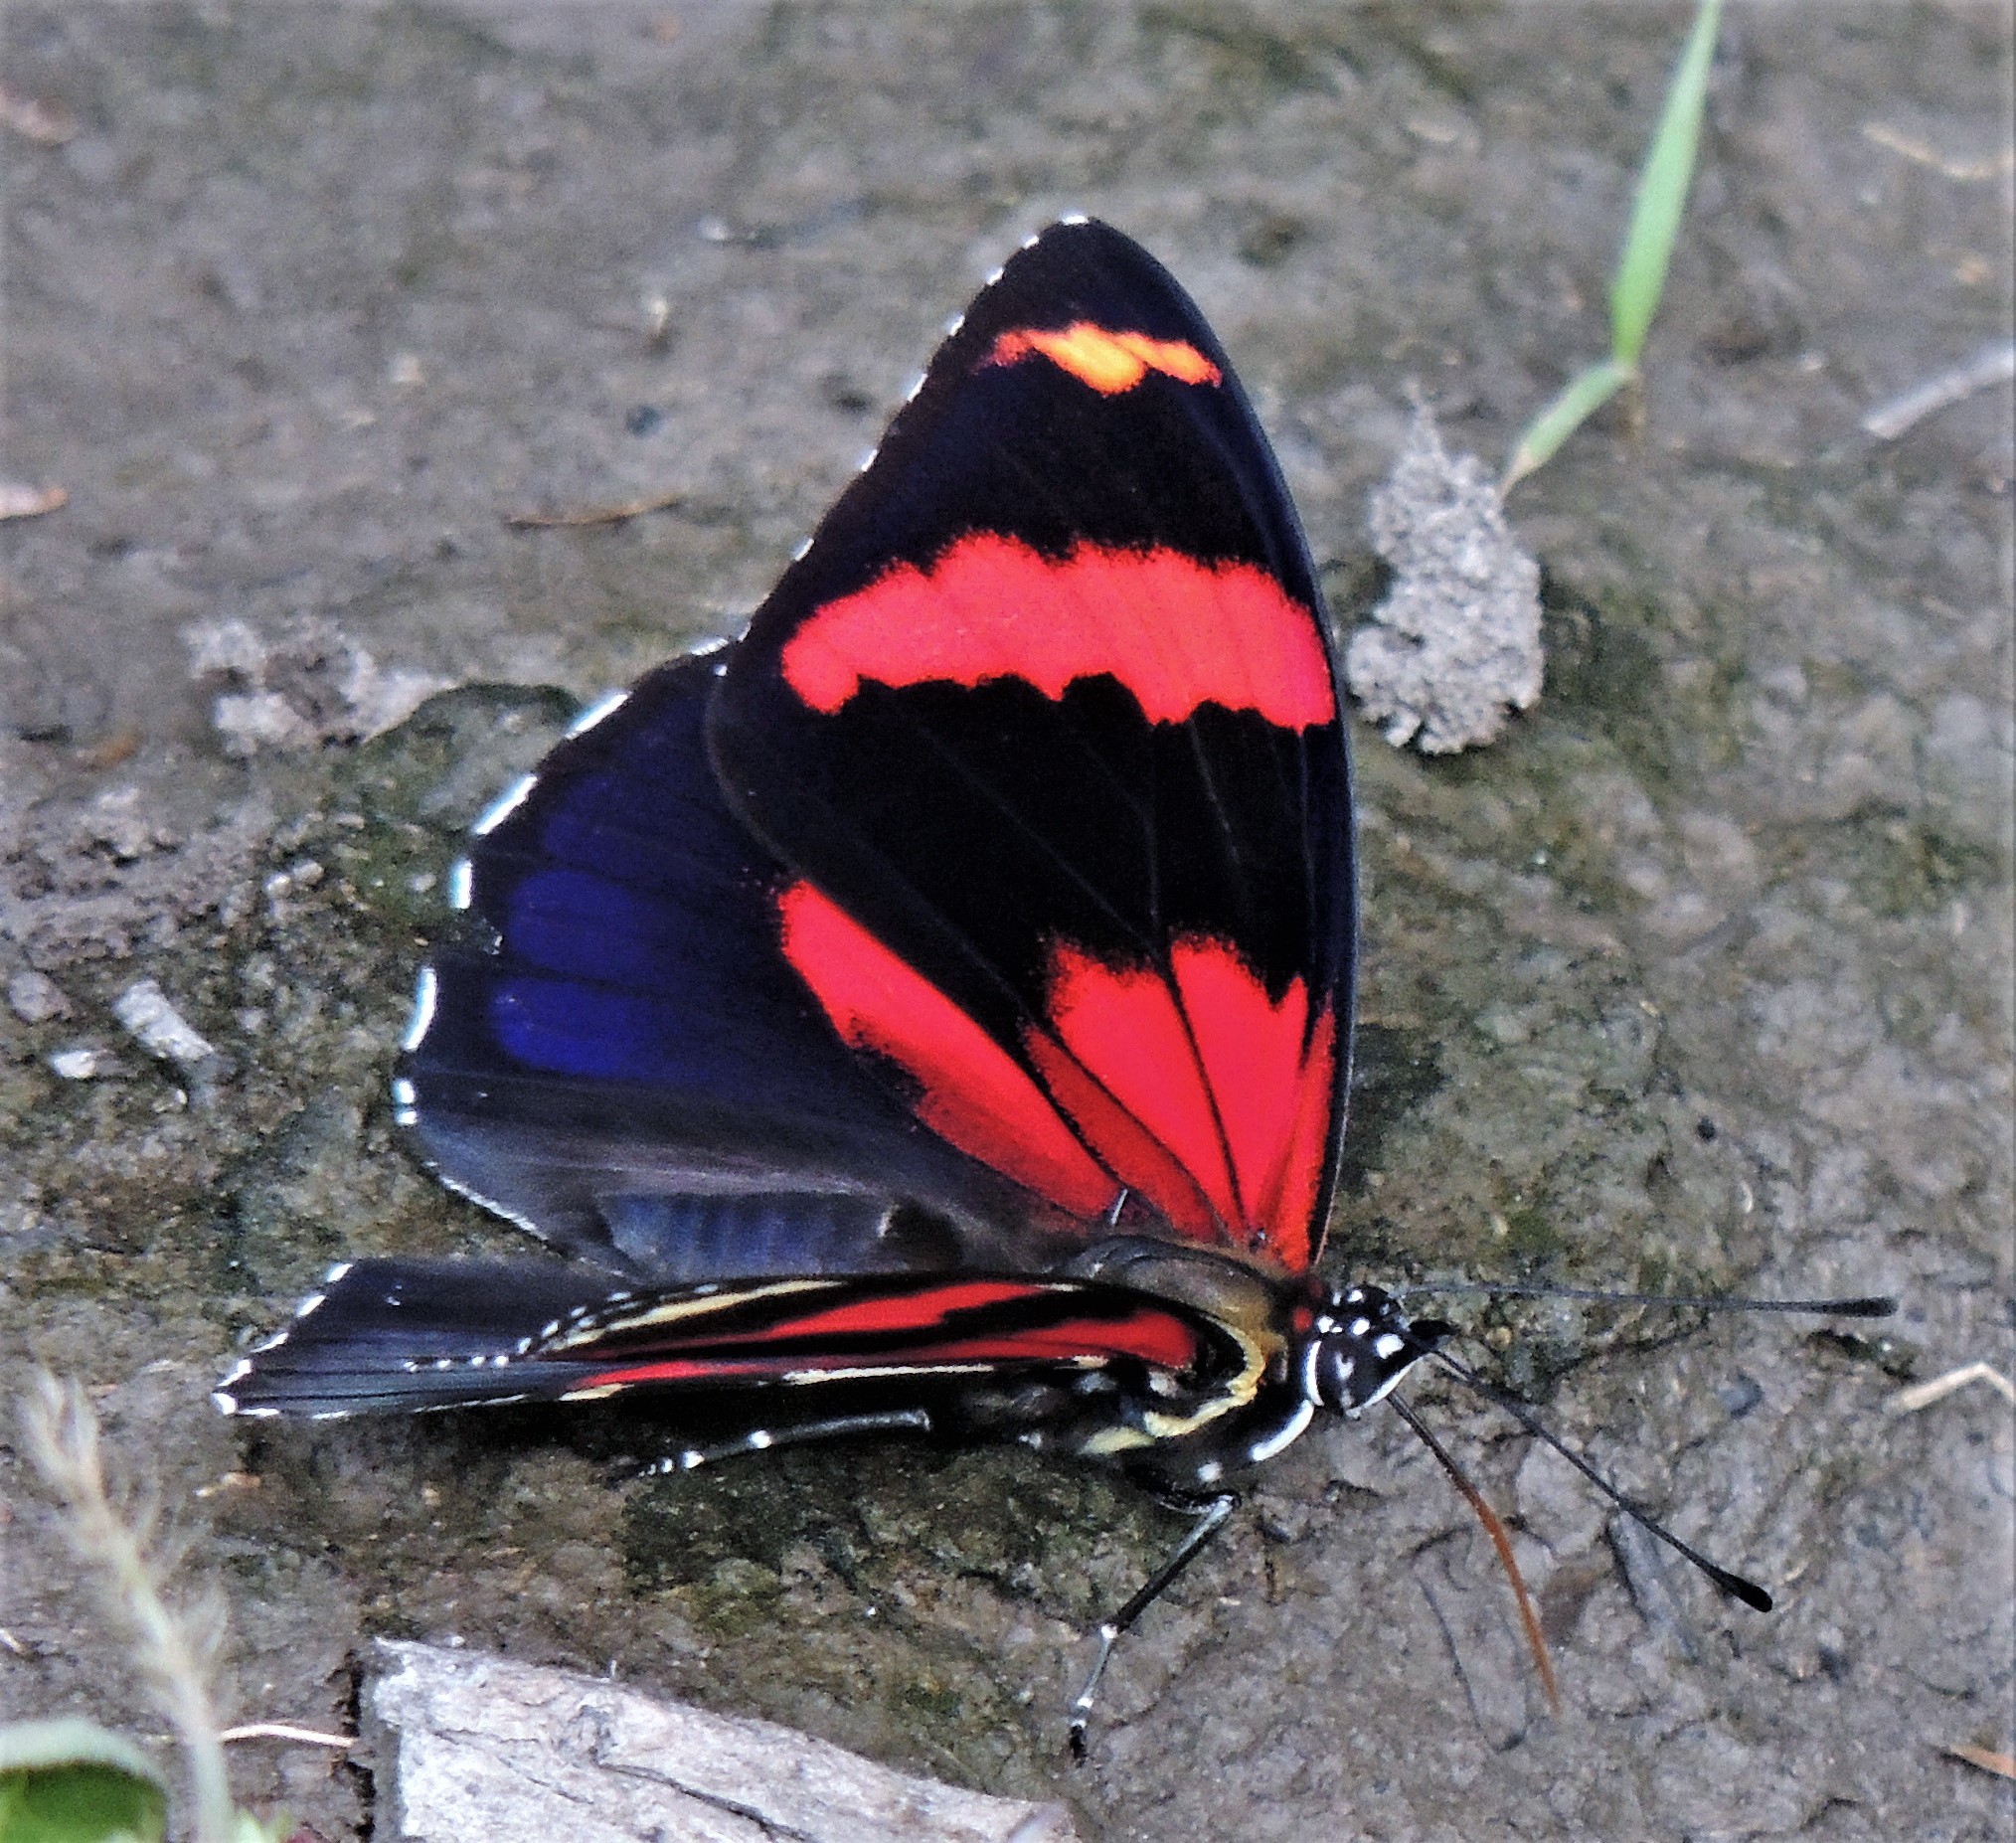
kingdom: Animalia
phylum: Arthropoda
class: Insecta
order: Lepidoptera
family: Nymphalidae
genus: Catagramma
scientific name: Catagramma Callicore sorana
